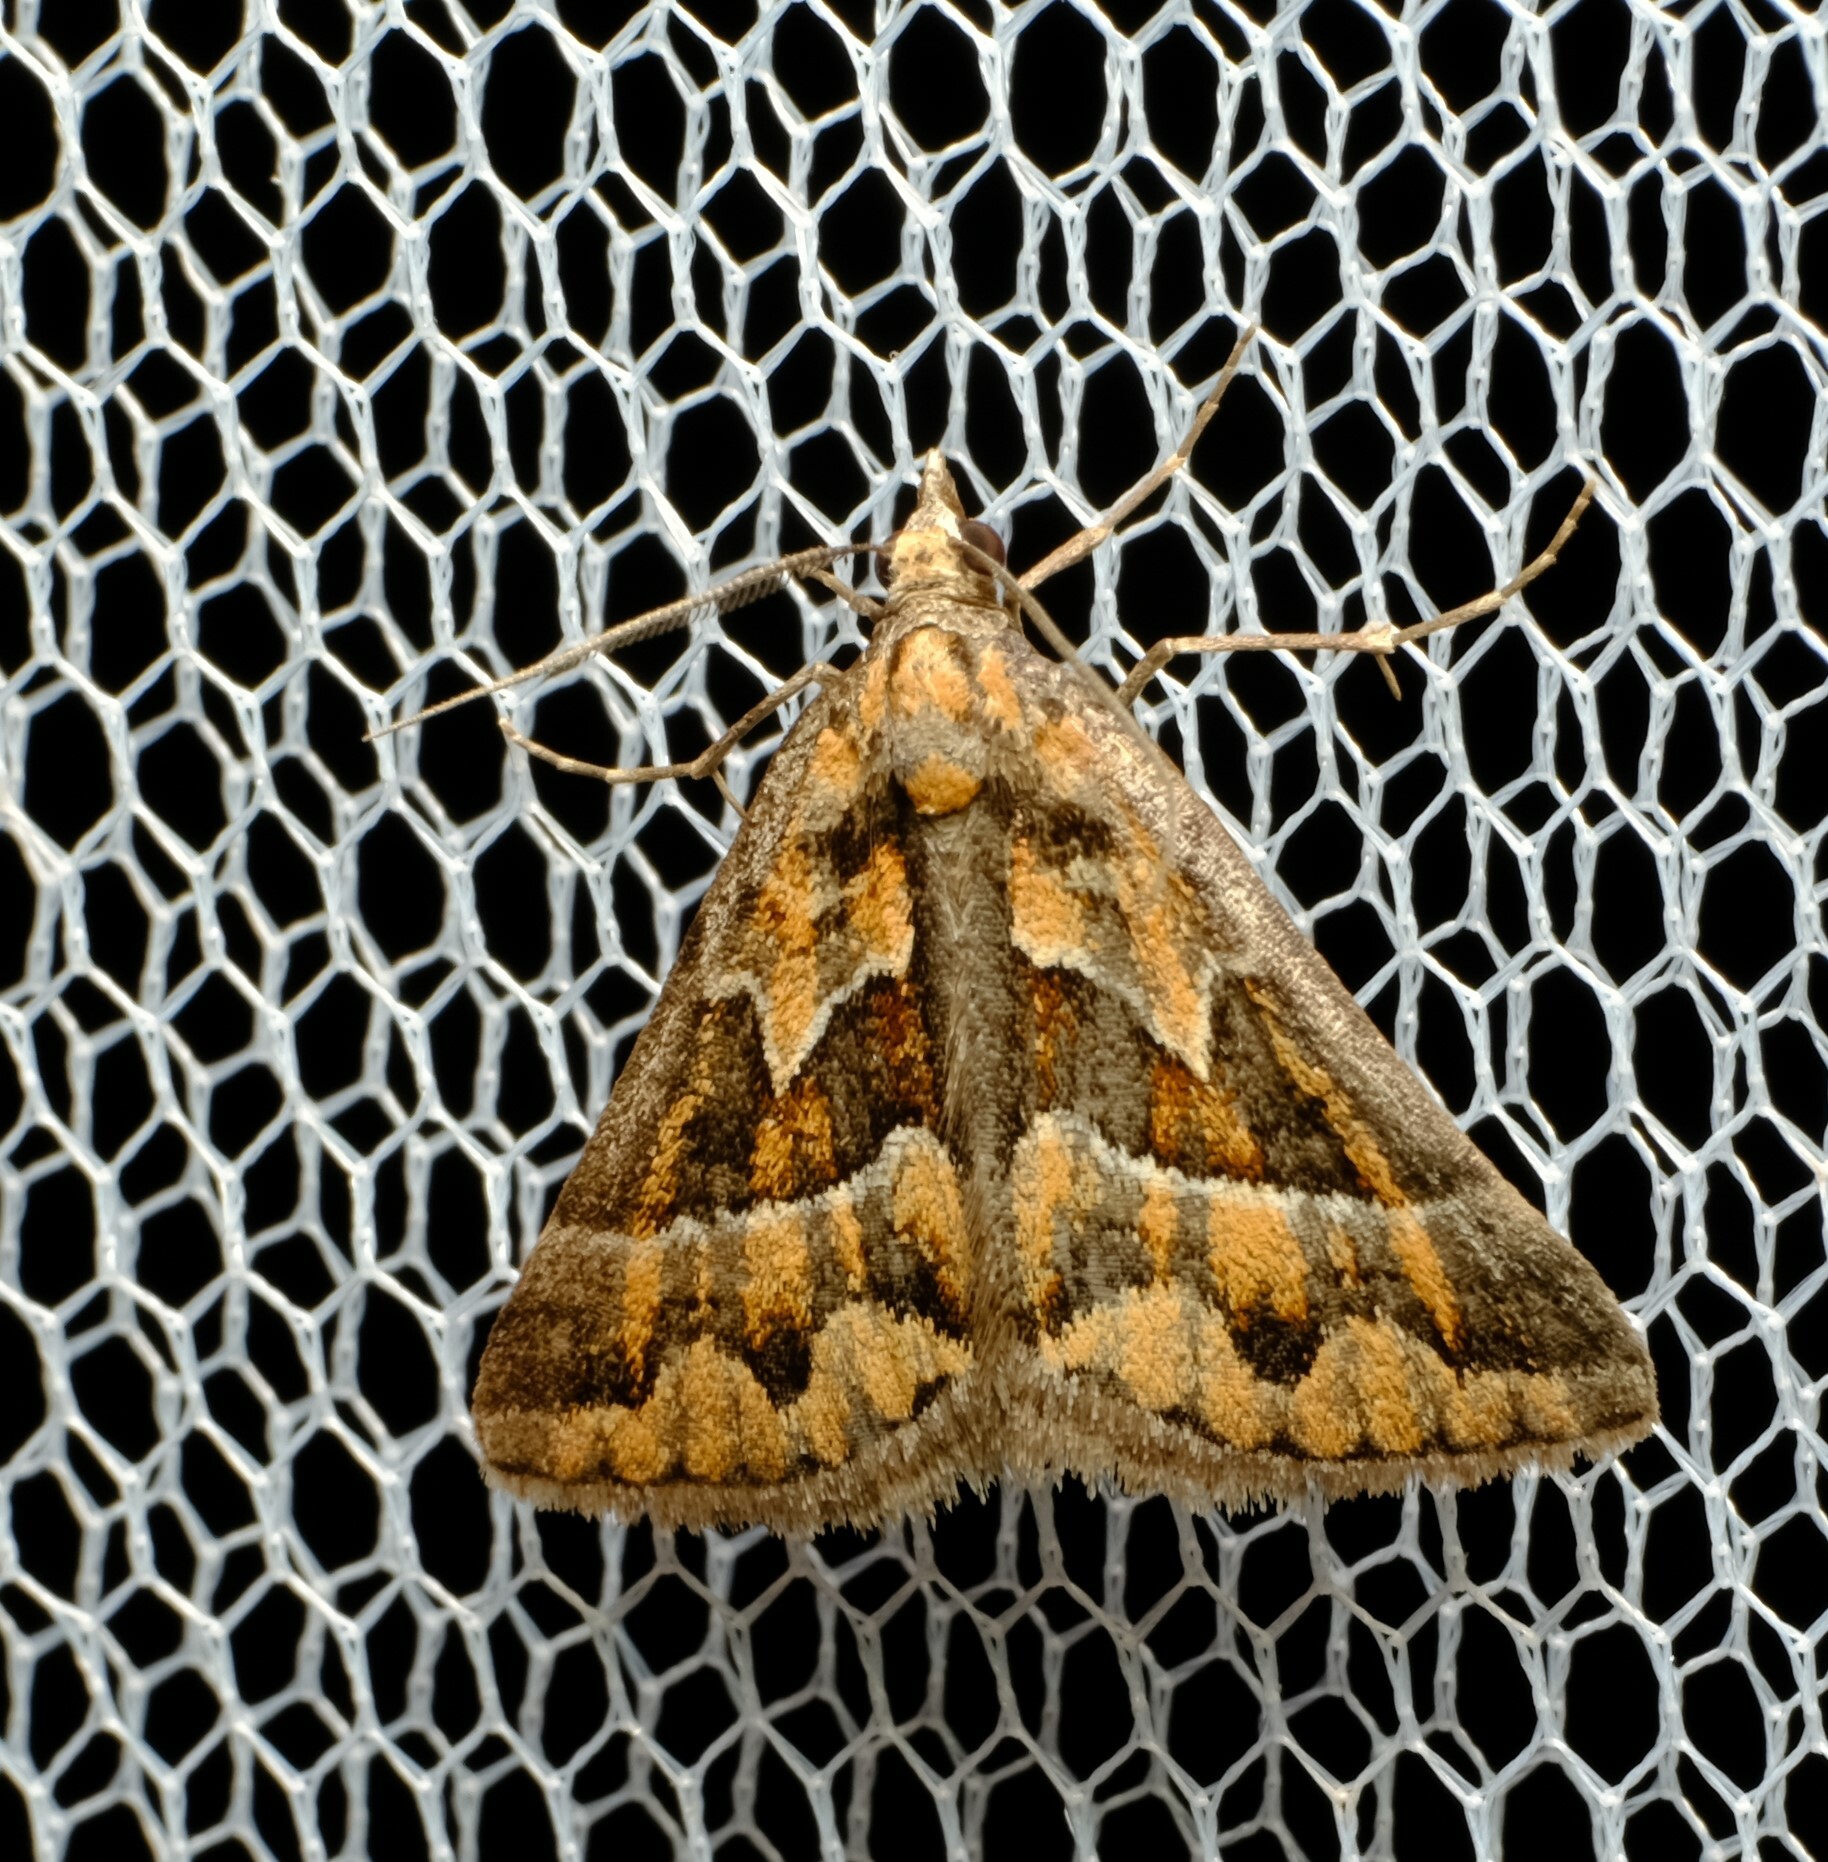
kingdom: Animalia
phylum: Arthropoda
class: Insecta
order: Lepidoptera
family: Geometridae
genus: Dichromodes
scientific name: Dichromodes poecilotis
